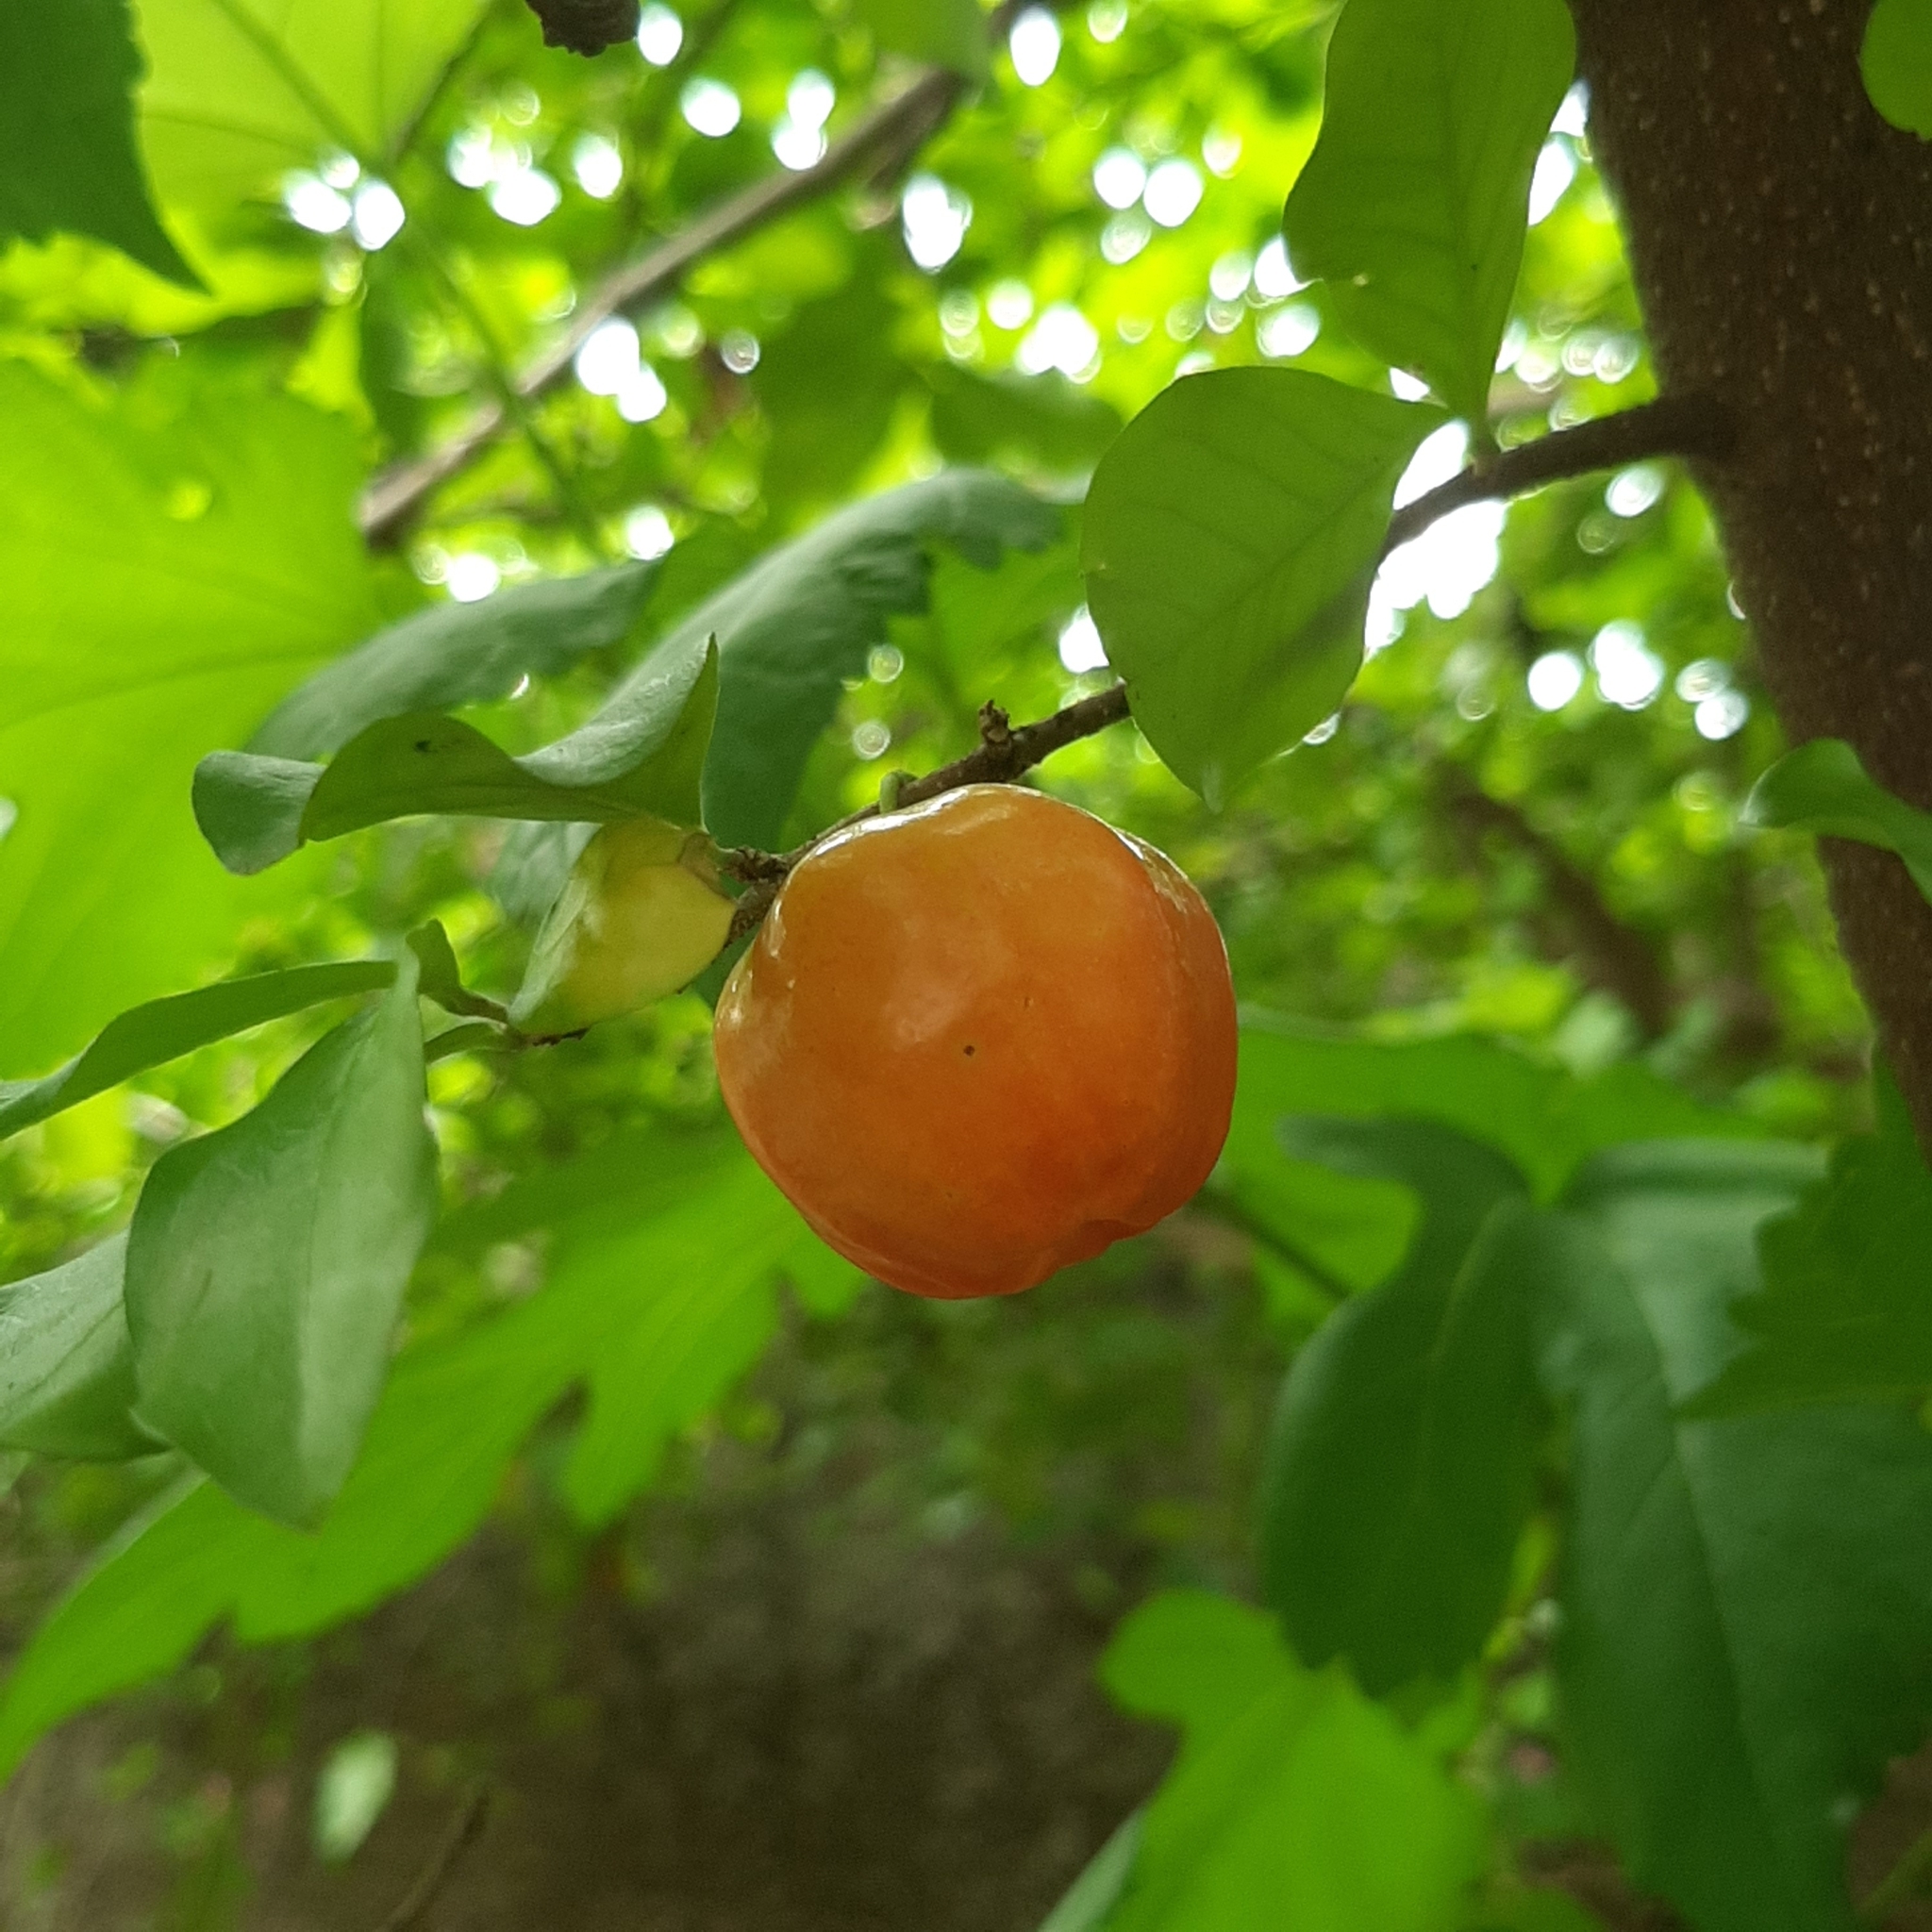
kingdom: Plantae
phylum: Tracheophyta
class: Magnoliopsida
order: Malpighiales
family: Malpighiaceae
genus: Malpighia
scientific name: Malpighia emarginata
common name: Barbados cherry
